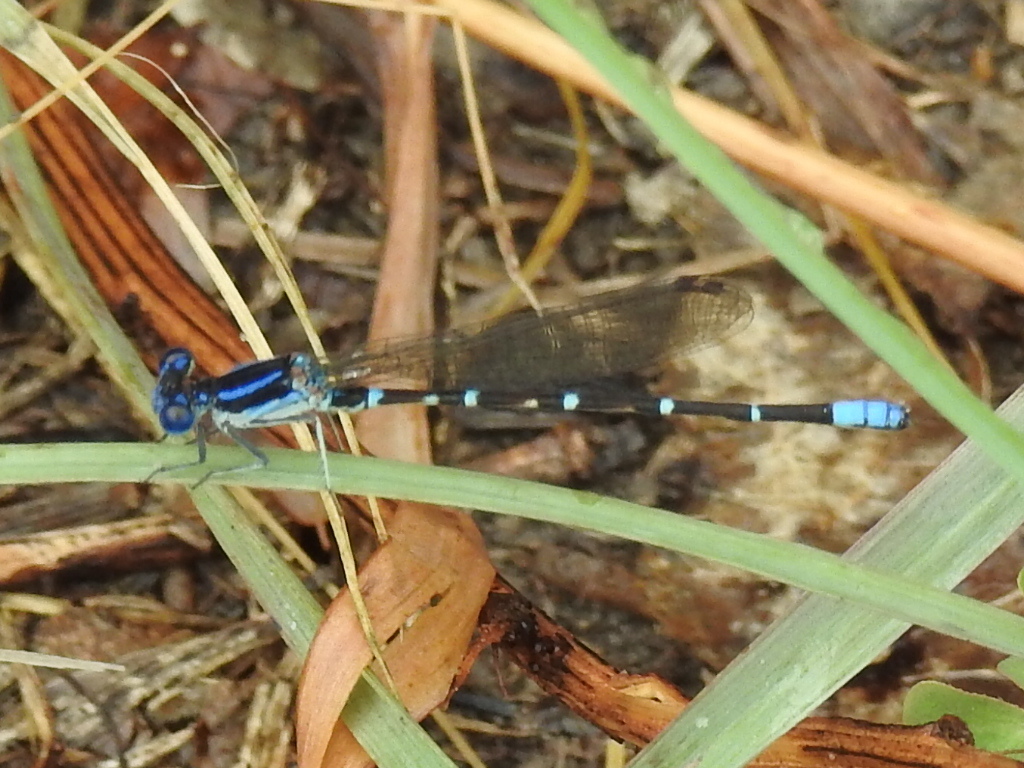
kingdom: Animalia
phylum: Arthropoda
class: Insecta
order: Odonata
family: Coenagrionidae
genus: Argia
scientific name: Argia sedula
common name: Blue-ringed dancer
